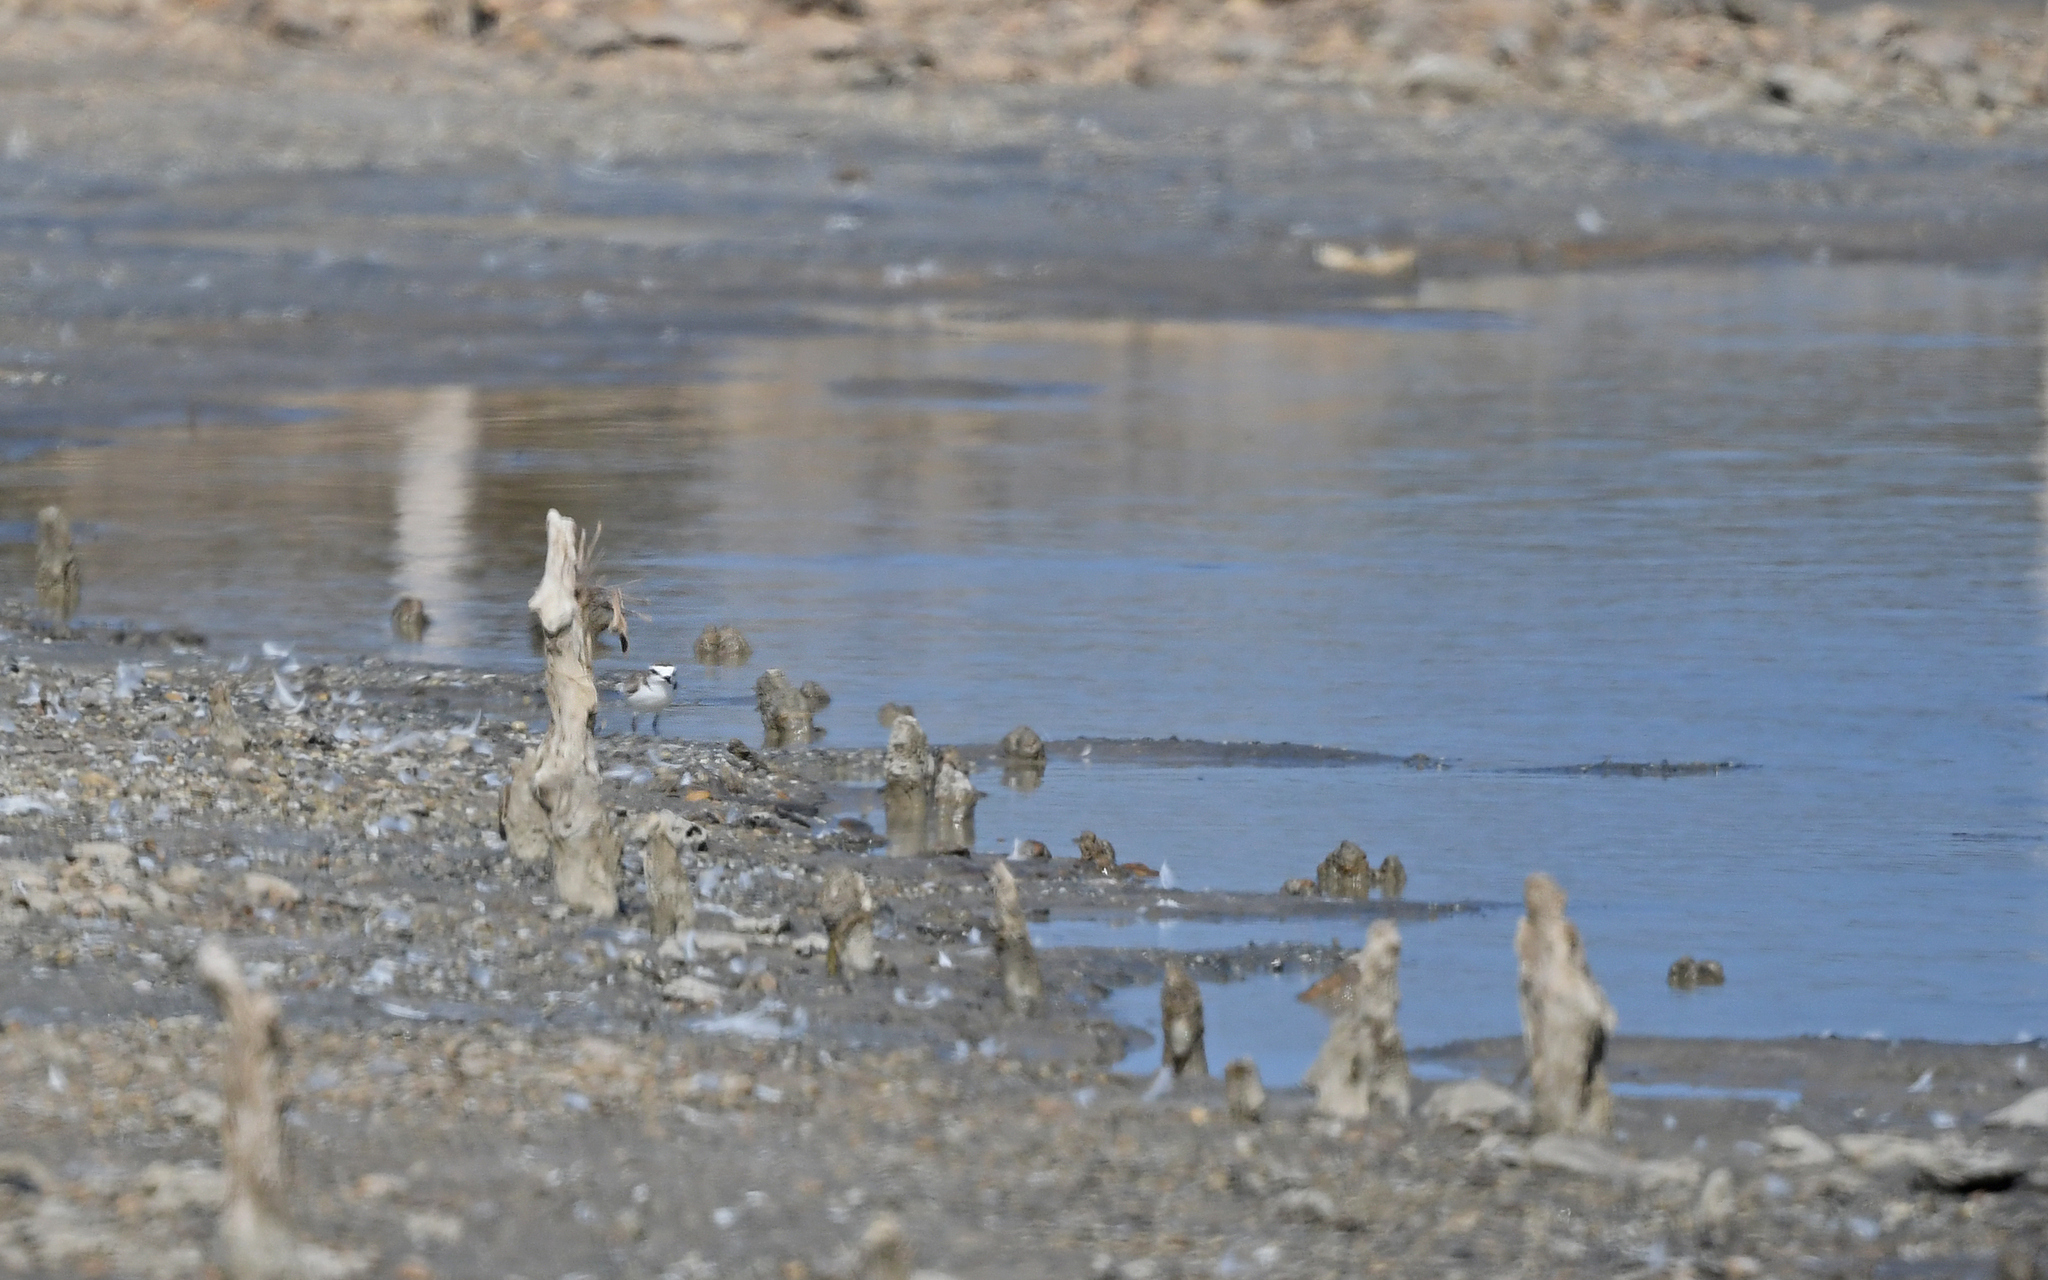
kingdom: Animalia
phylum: Chordata
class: Aves
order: Charadriiformes
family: Charadriidae
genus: Charadrius
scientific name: Charadrius alexandrinus
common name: Kentish plover
